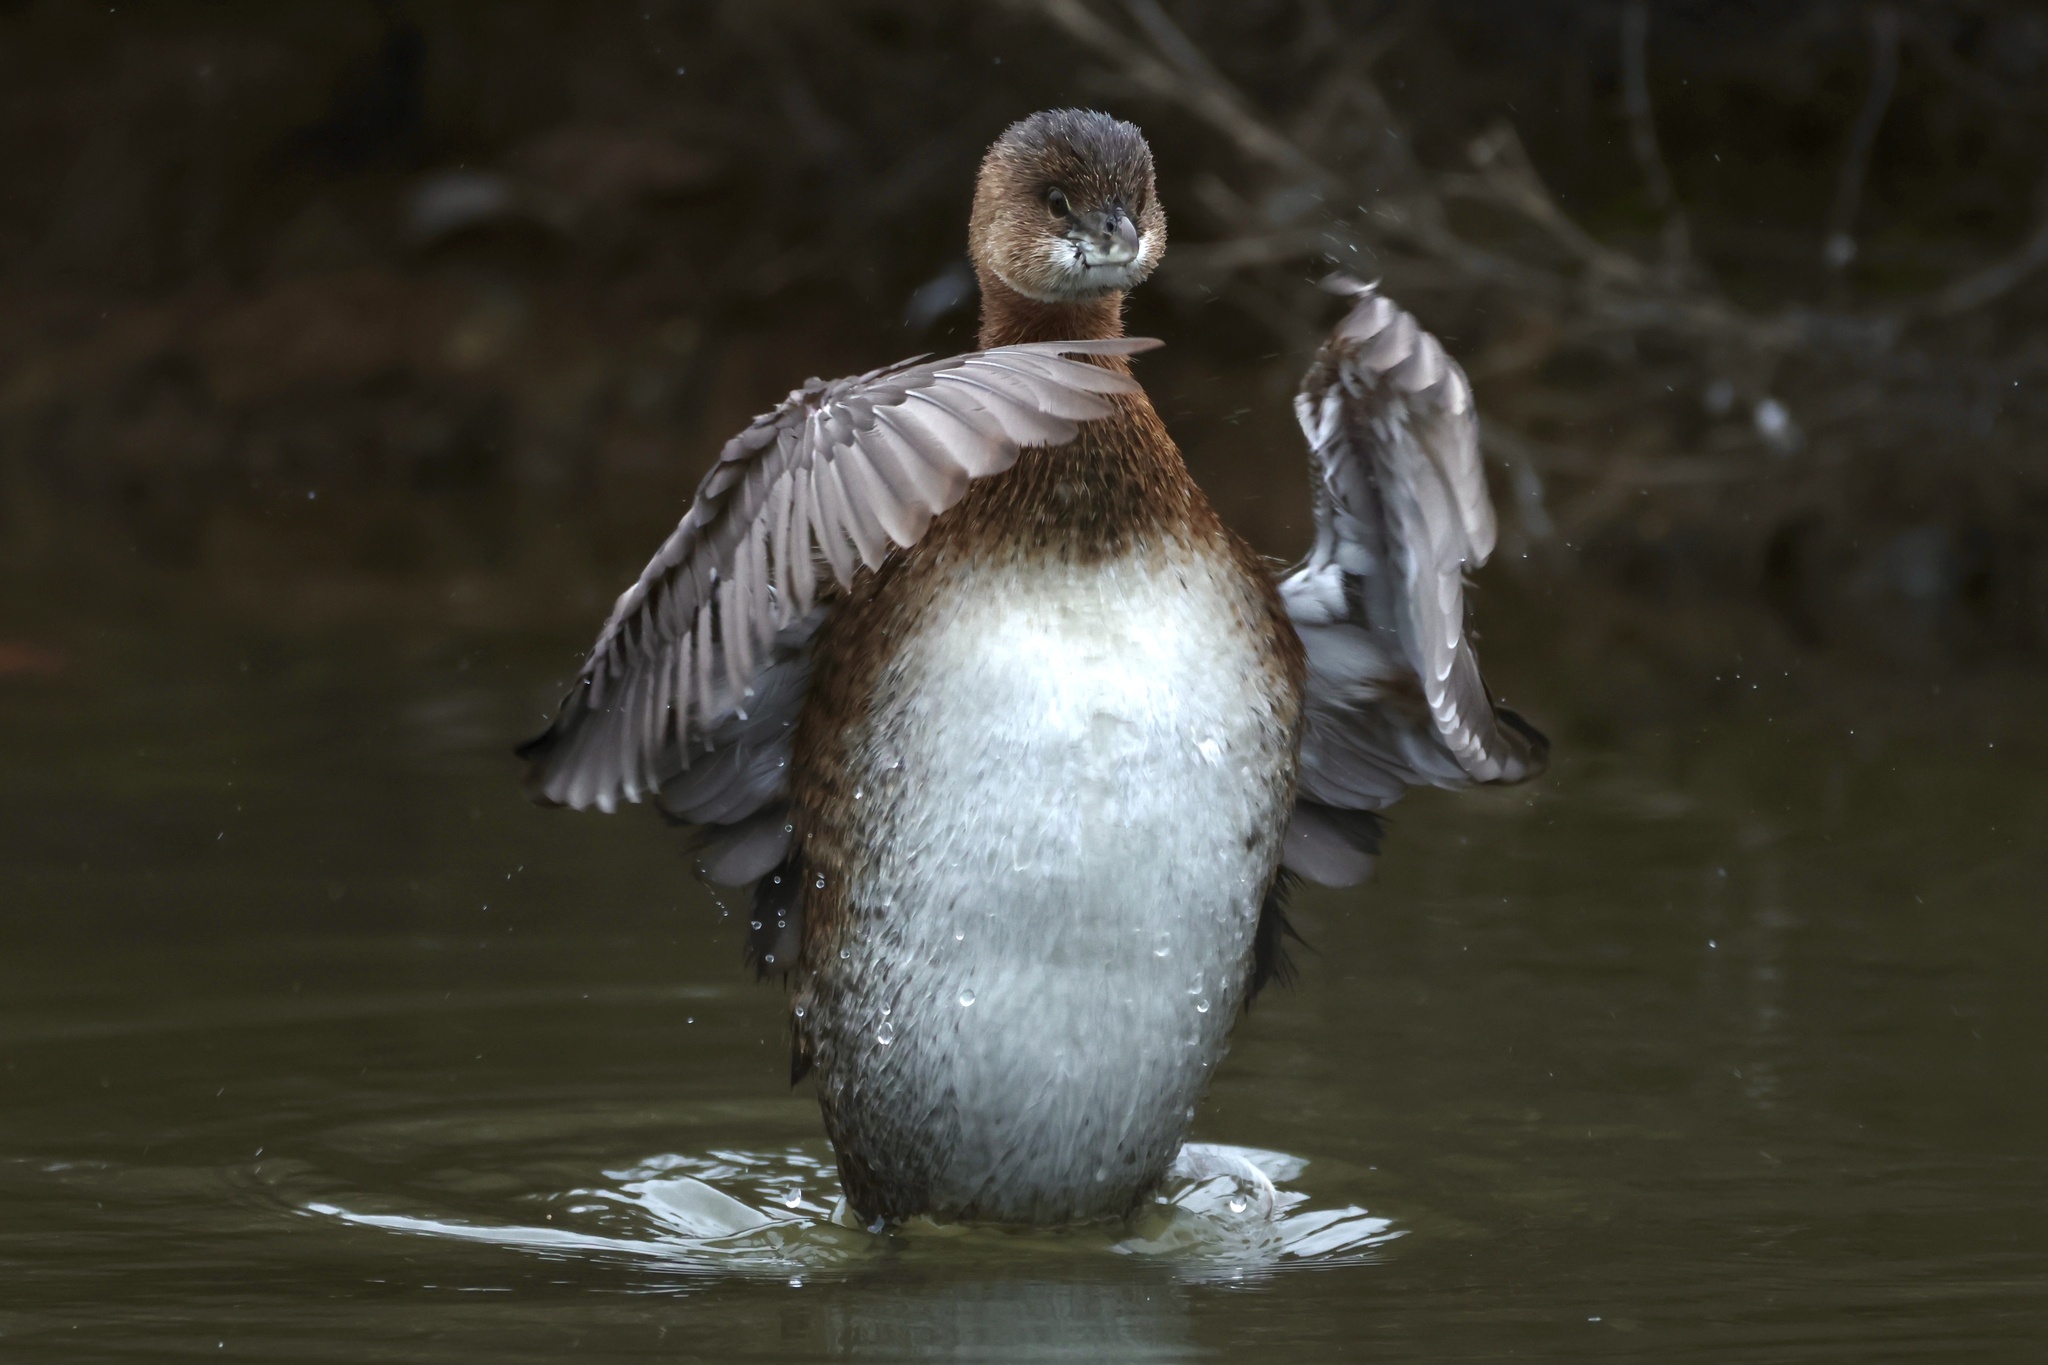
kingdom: Animalia
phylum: Chordata
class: Aves
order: Podicipediformes
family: Podicipedidae
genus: Podilymbus
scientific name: Podilymbus podiceps
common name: Pied-billed grebe
